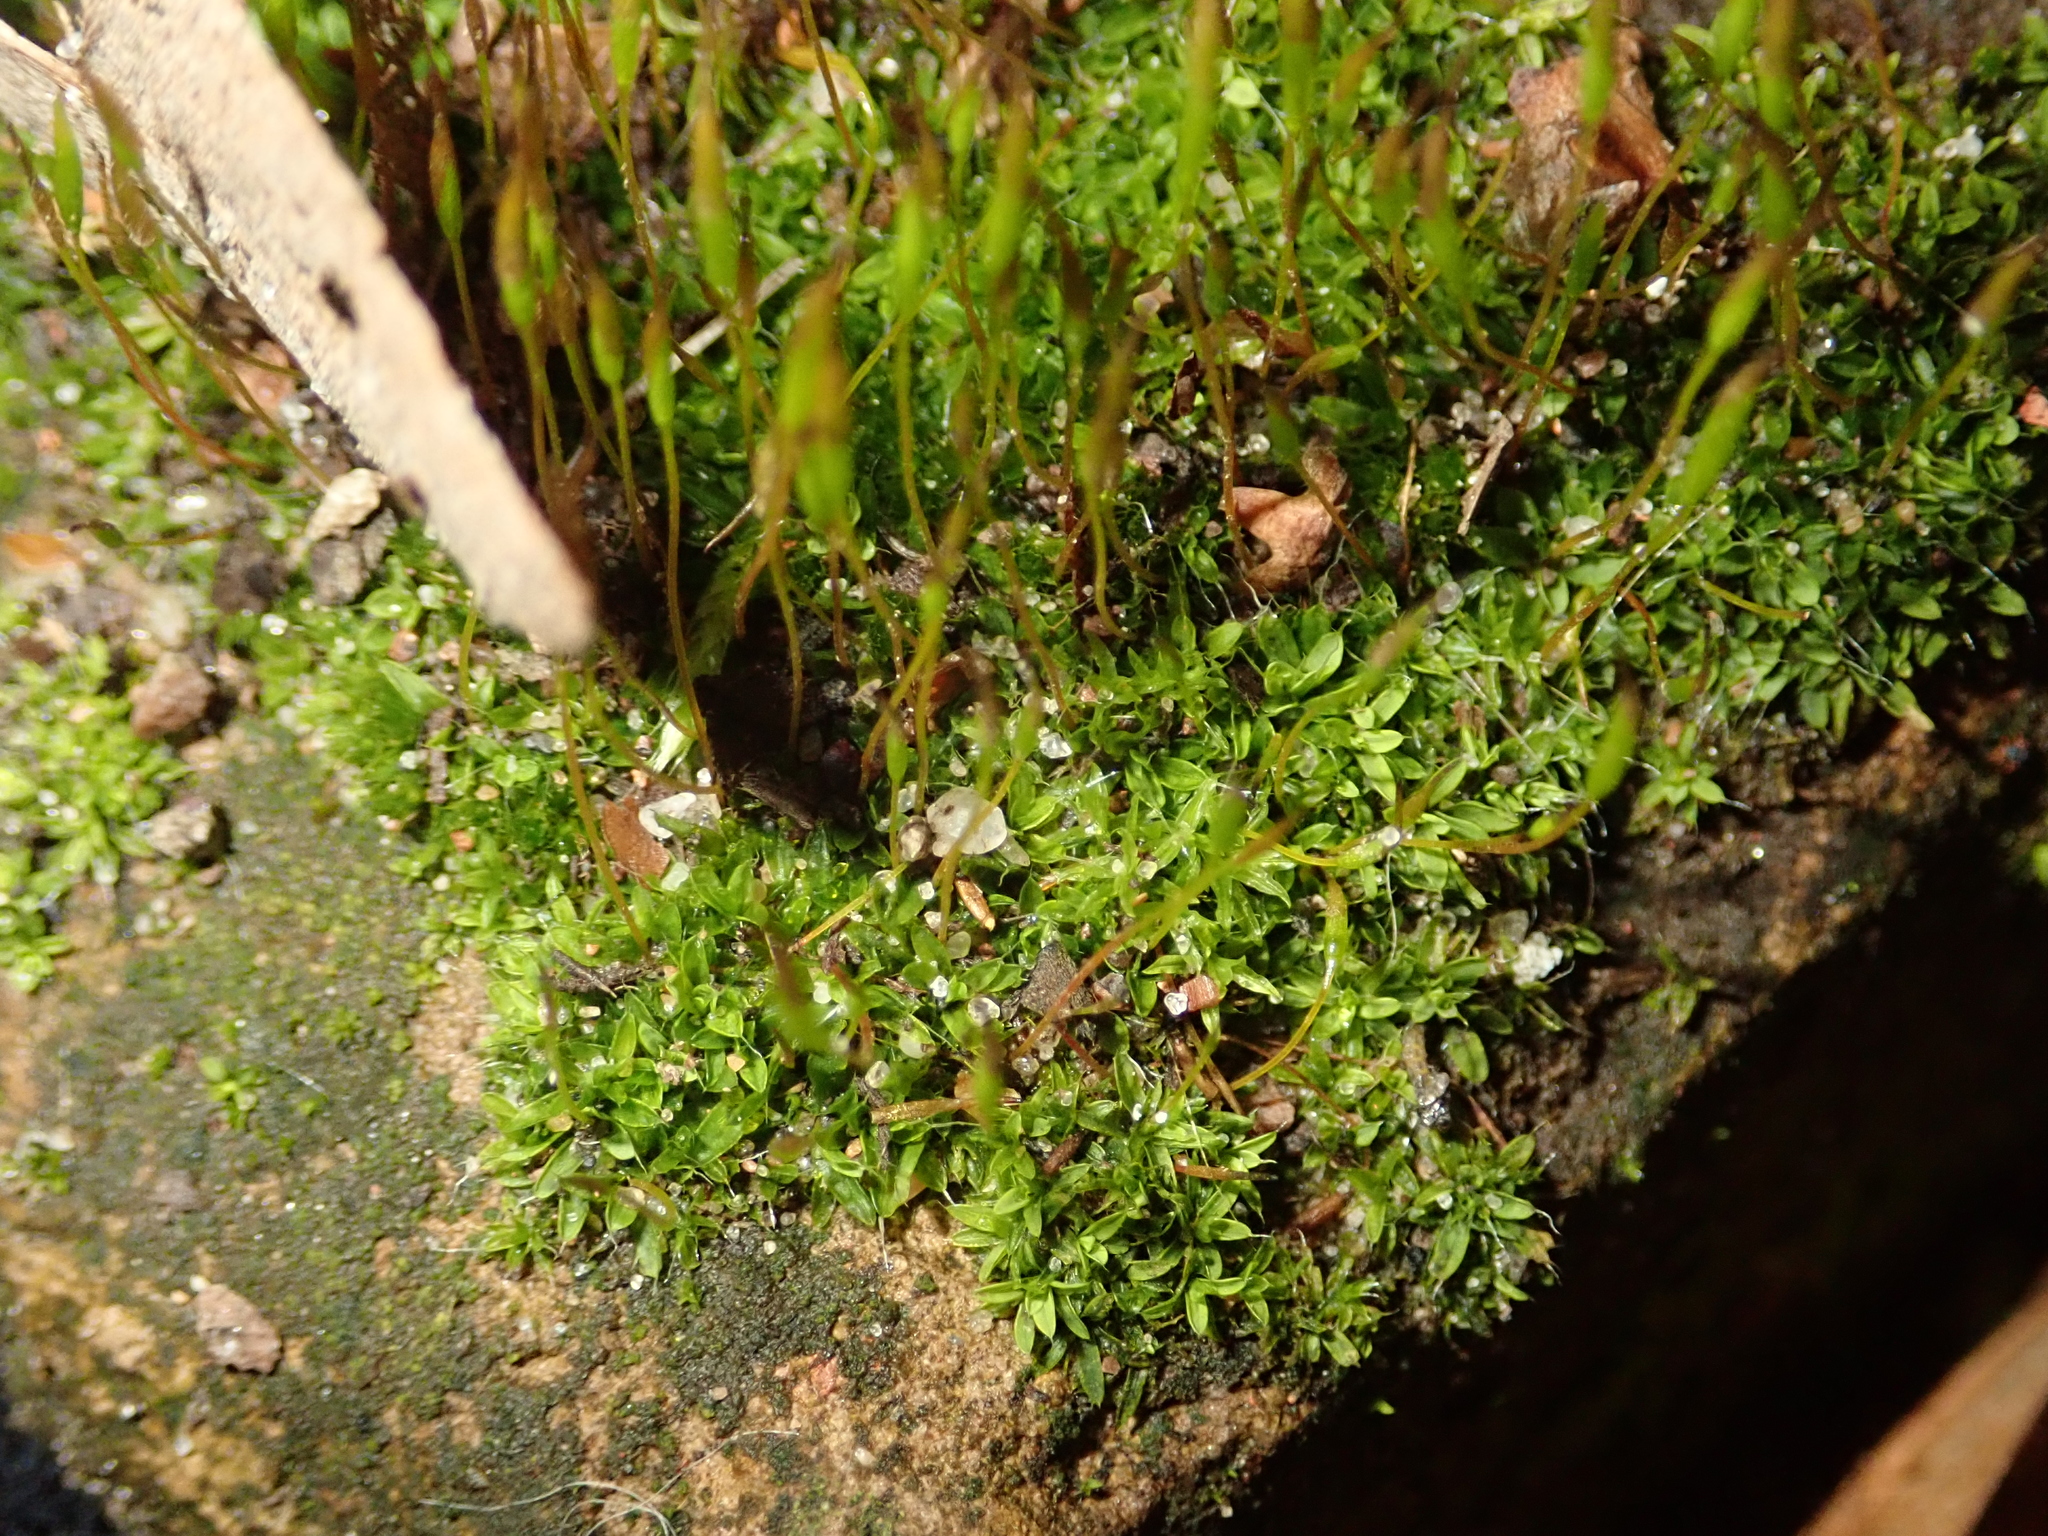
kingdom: Plantae
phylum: Bryophyta
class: Bryopsida
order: Pottiales
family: Pottiaceae
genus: Tortula
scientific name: Tortula muralis
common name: Wall screw-moss
